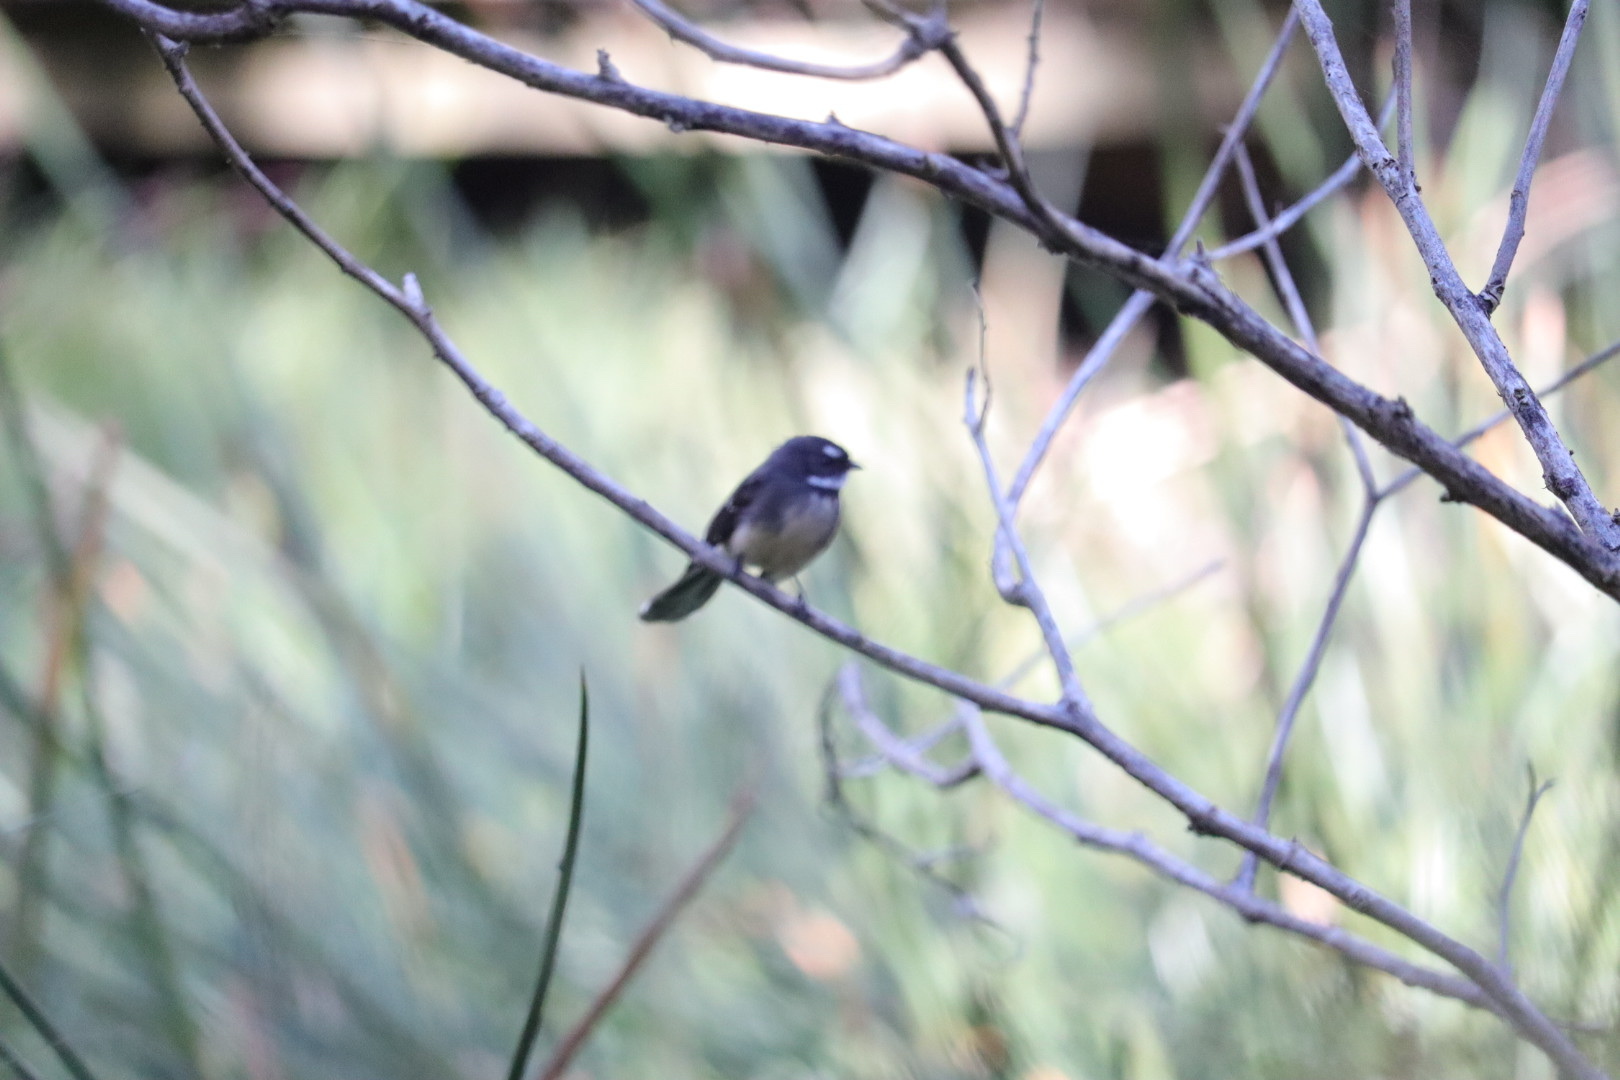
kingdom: Animalia
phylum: Chordata
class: Aves
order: Passeriformes
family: Rhipiduridae
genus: Rhipidura
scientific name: Rhipidura albiscapa
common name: Grey fantail
